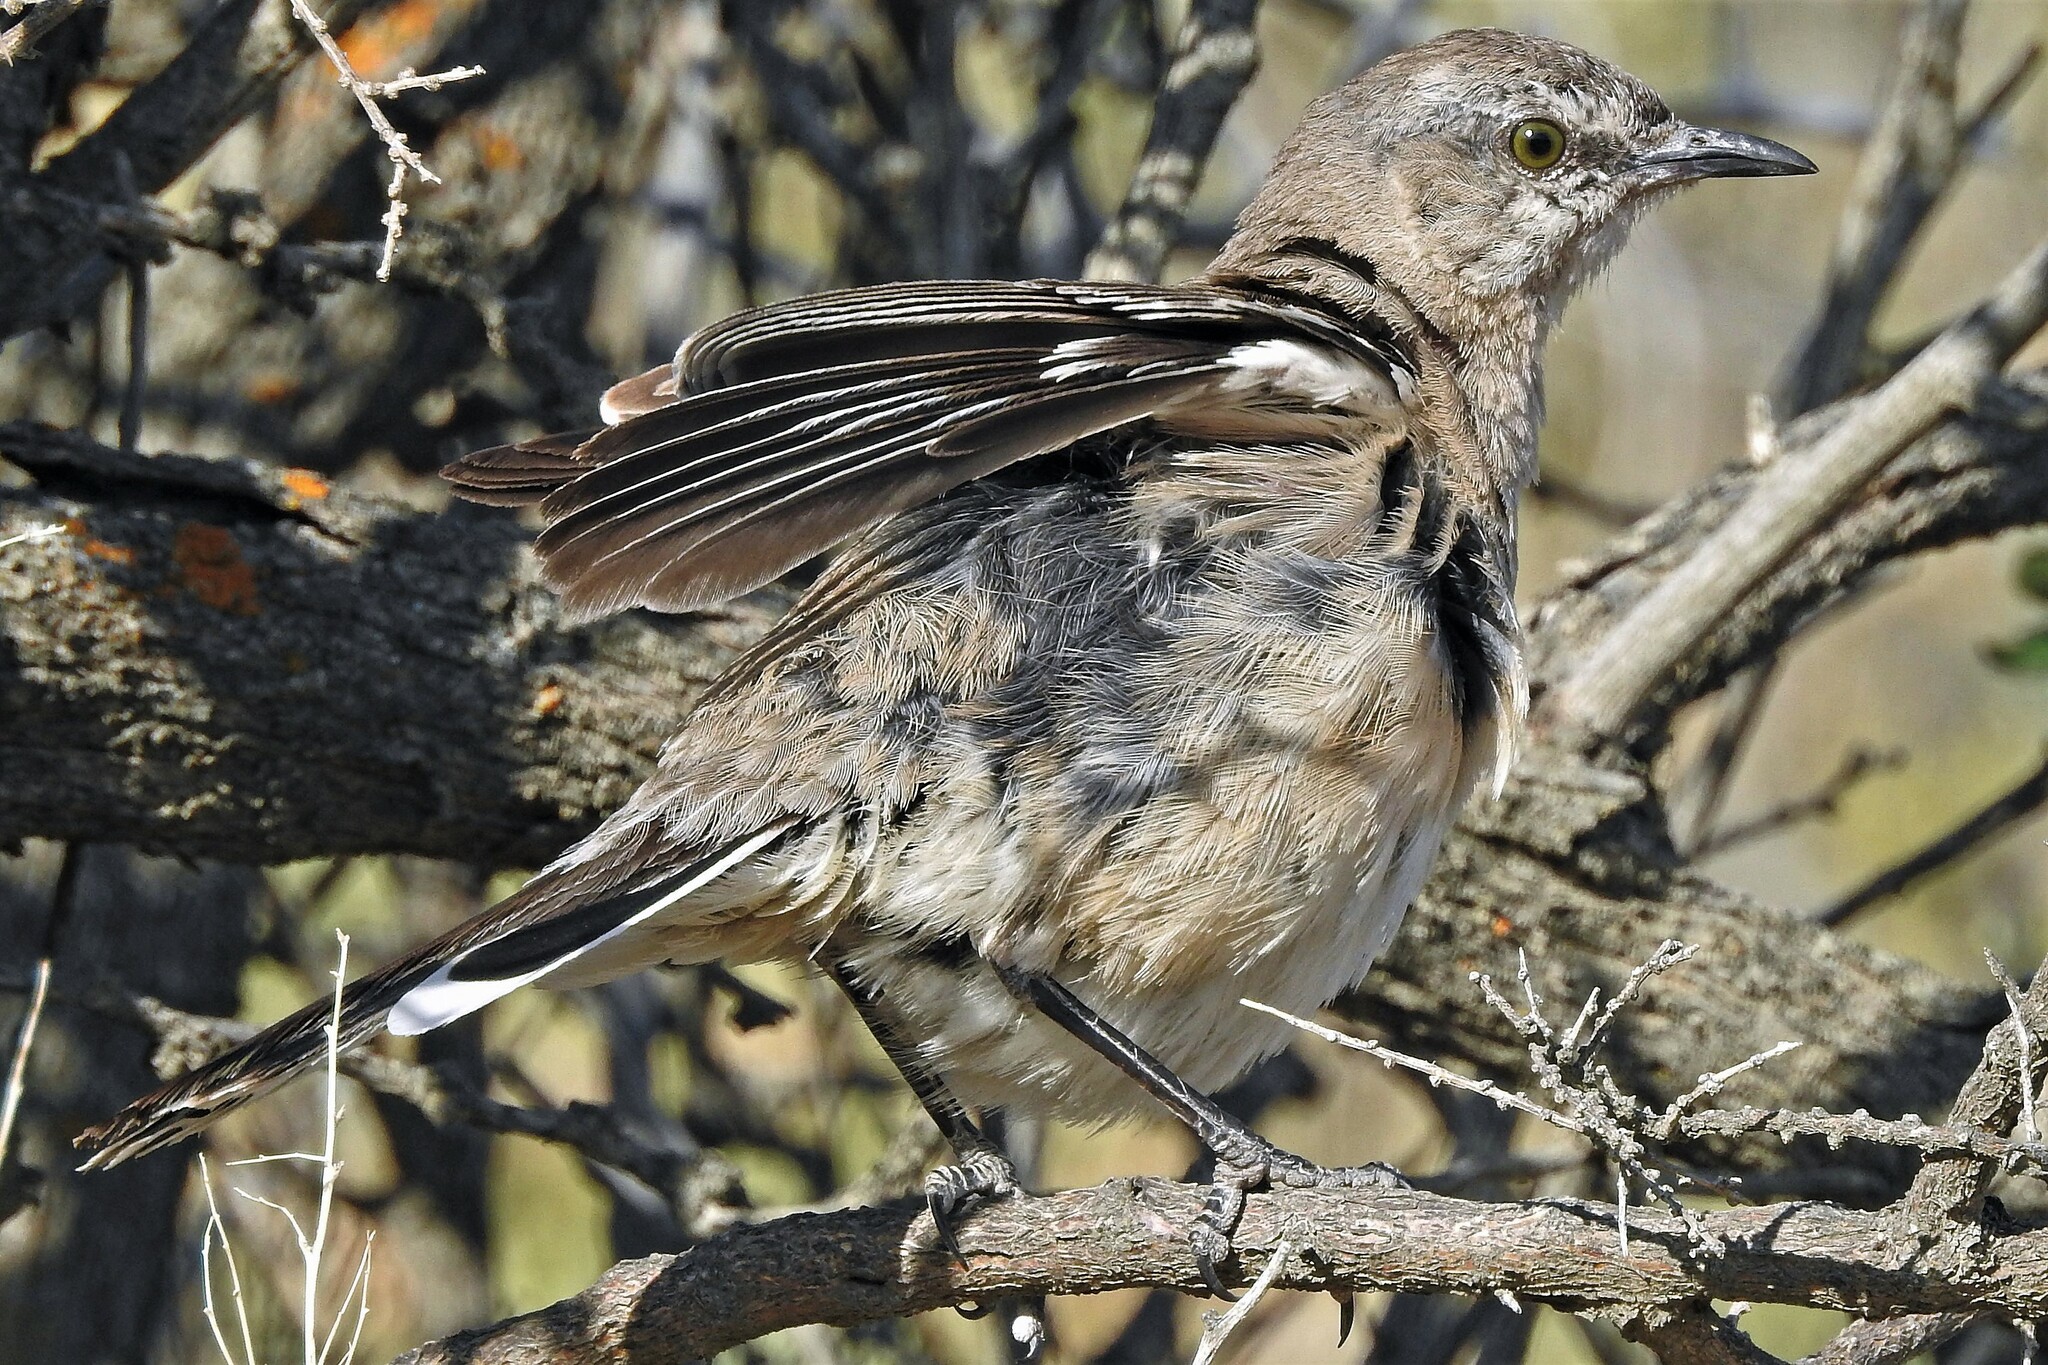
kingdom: Animalia
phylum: Chordata
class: Aves
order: Passeriformes
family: Mimidae
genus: Mimus
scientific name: Mimus patagonicus
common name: Patagonian mockingbird
